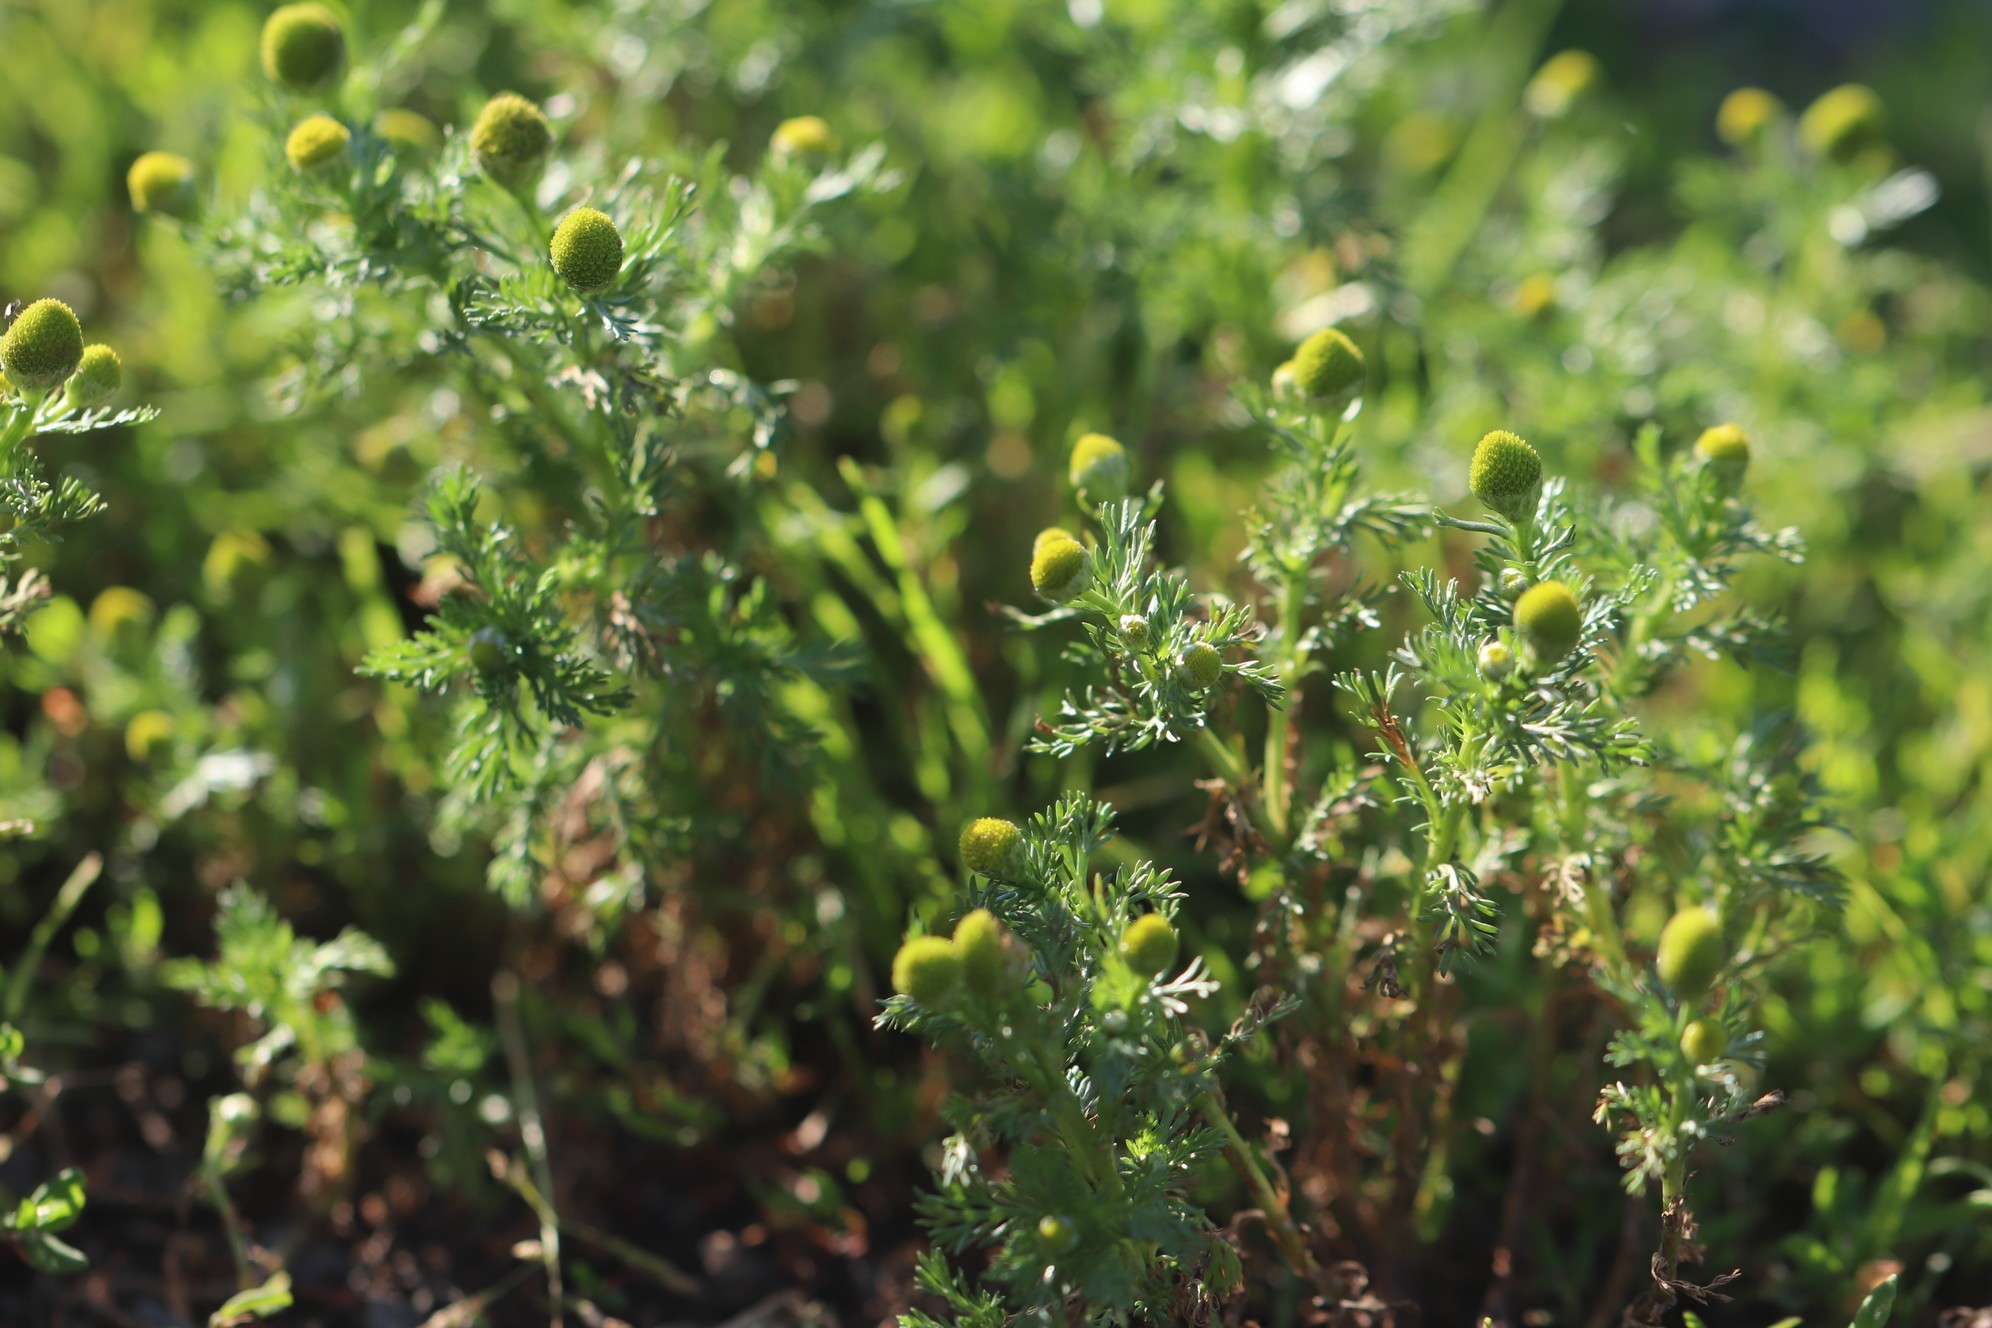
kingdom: Plantae
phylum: Tracheophyta
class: Magnoliopsida
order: Asterales
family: Asteraceae
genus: Matricaria
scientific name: Matricaria discoidea
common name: Disc mayweed
